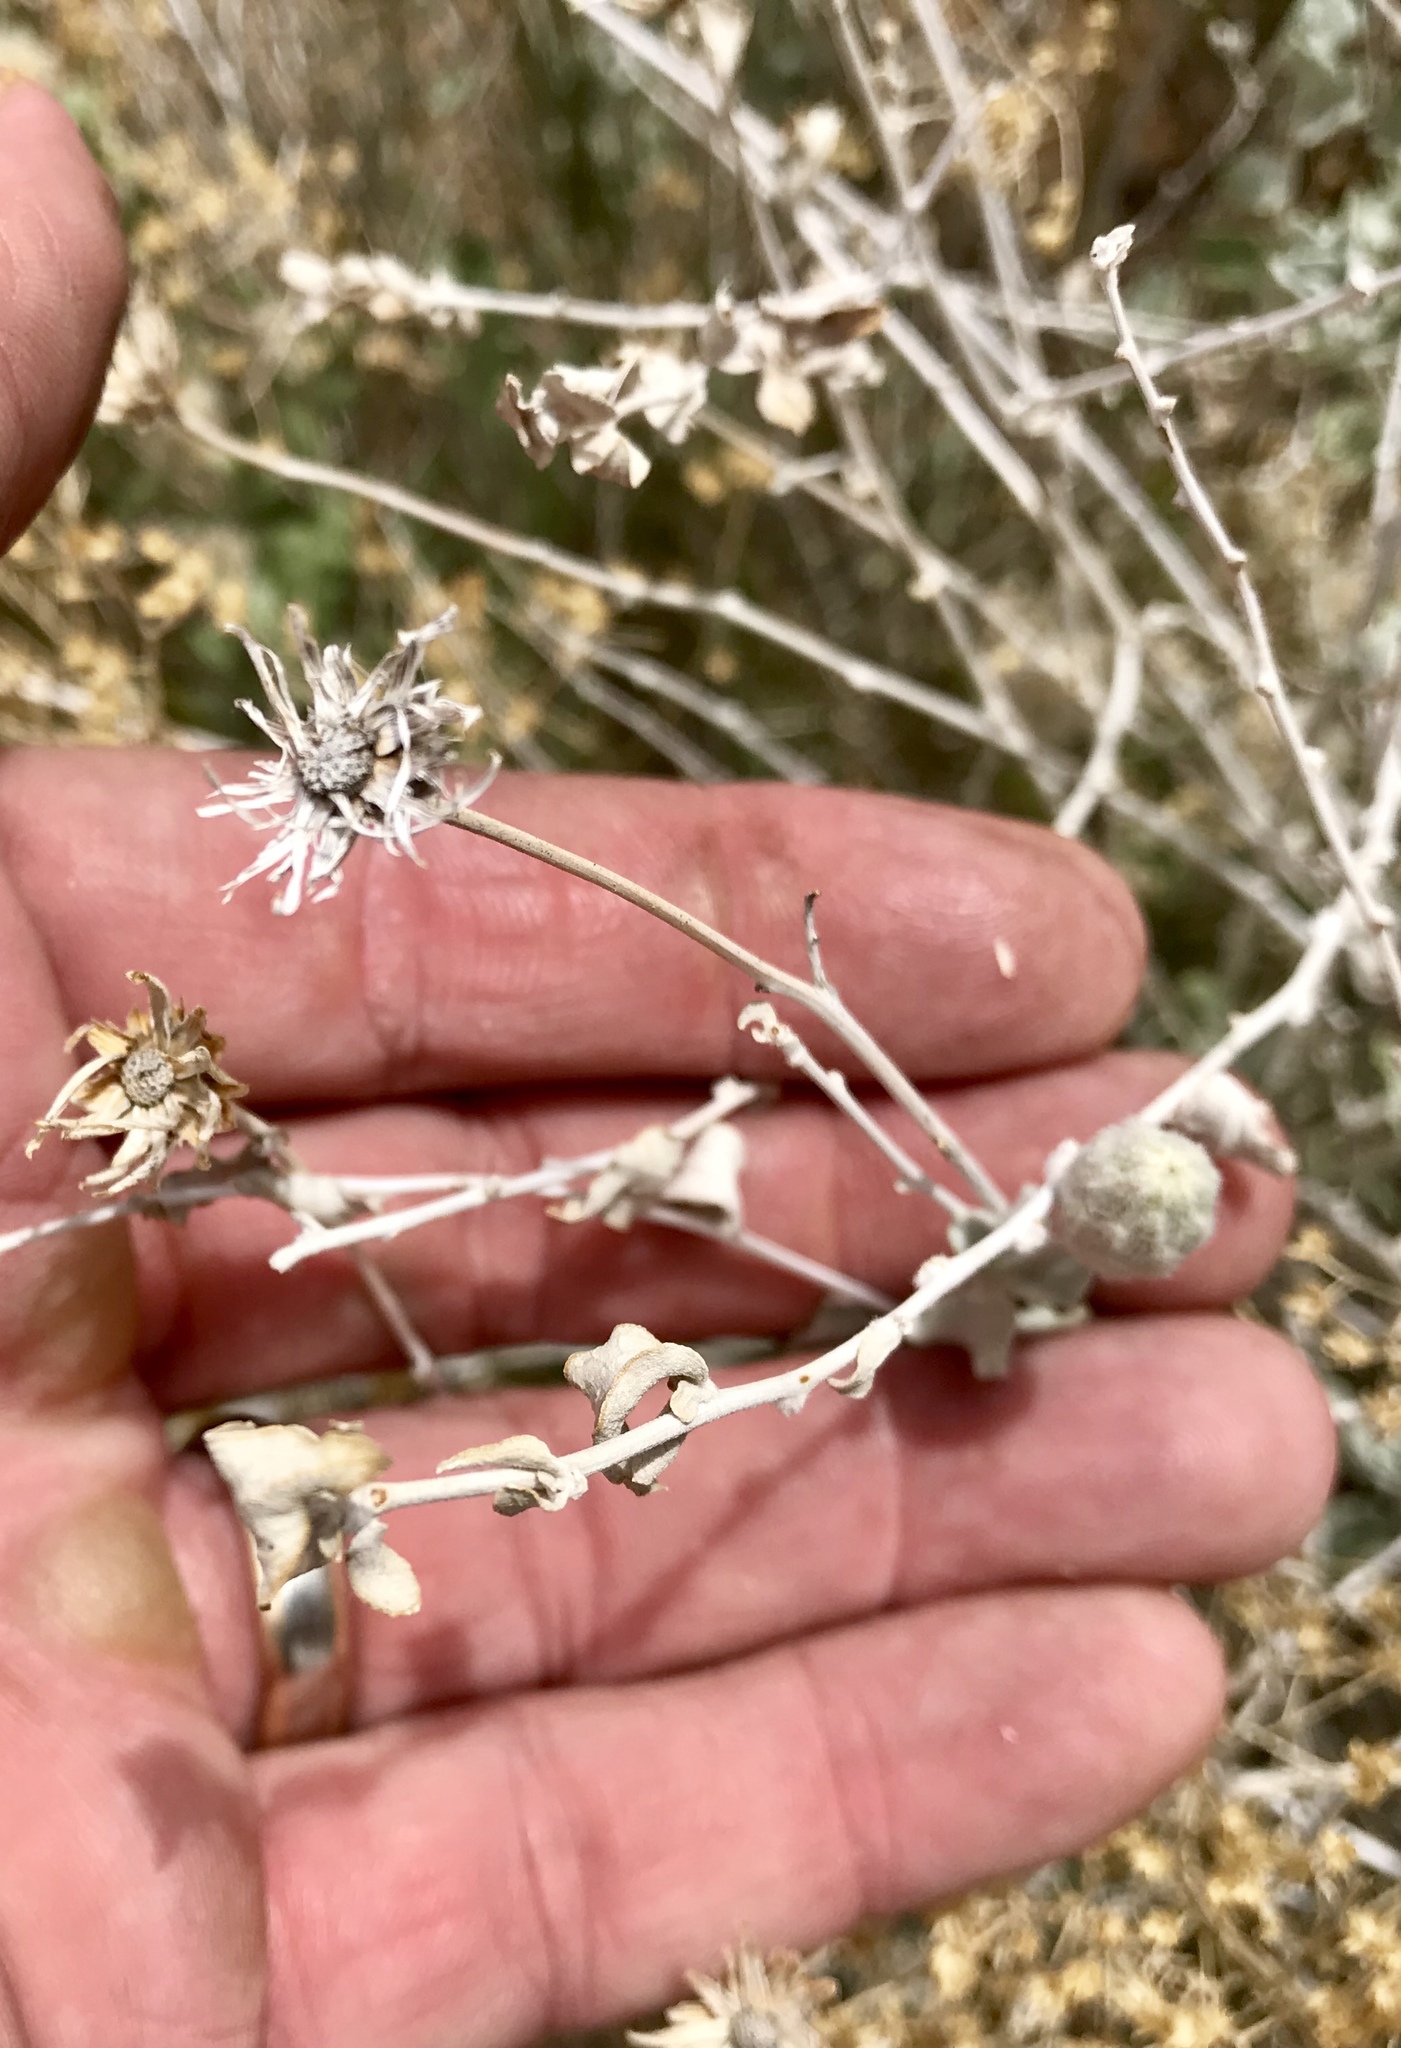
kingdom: Plantae
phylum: Tracheophyta
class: Magnoliopsida
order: Asterales
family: Asteraceae
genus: Brickellia
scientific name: Brickellia incana
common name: Woolly brickelbush
